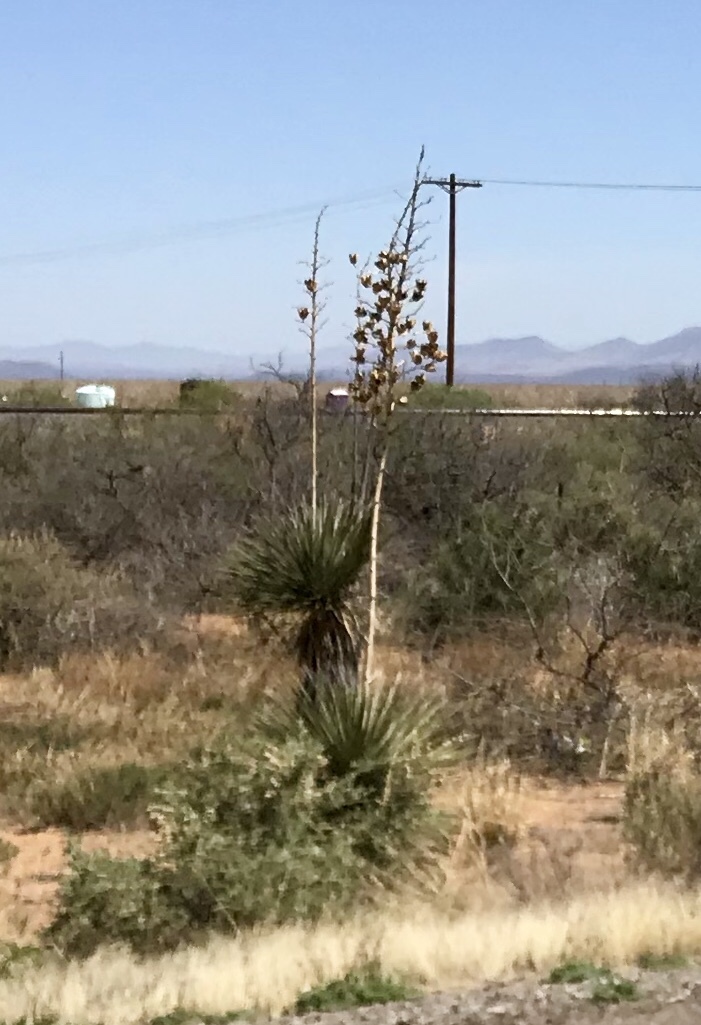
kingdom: Plantae
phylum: Tracheophyta
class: Liliopsida
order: Asparagales
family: Asparagaceae
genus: Yucca
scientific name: Yucca elata
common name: Palmella
